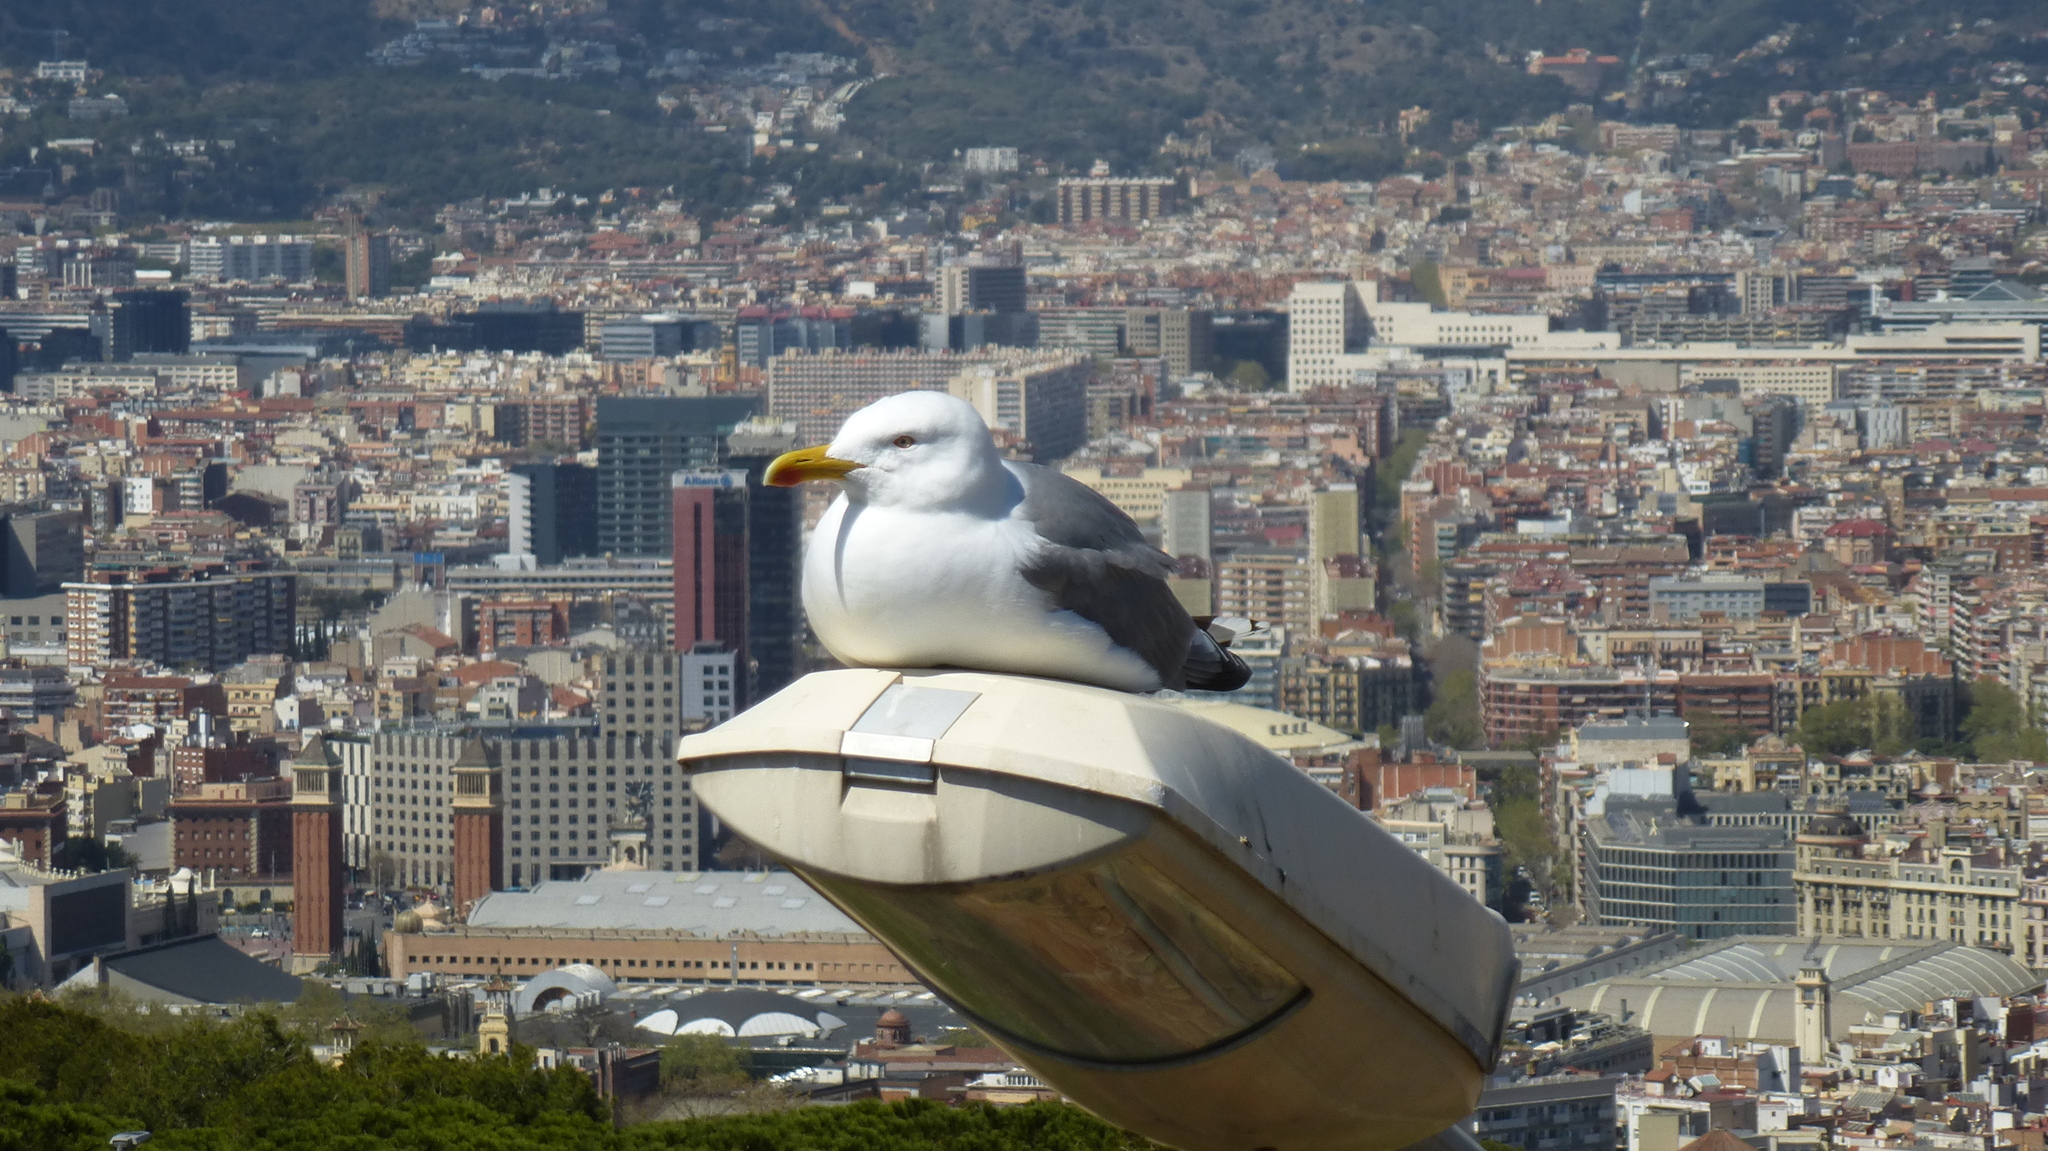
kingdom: Animalia
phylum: Chordata
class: Aves
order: Charadriiformes
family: Laridae
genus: Larus
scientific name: Larus michahellis
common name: Yellow-legged gull
